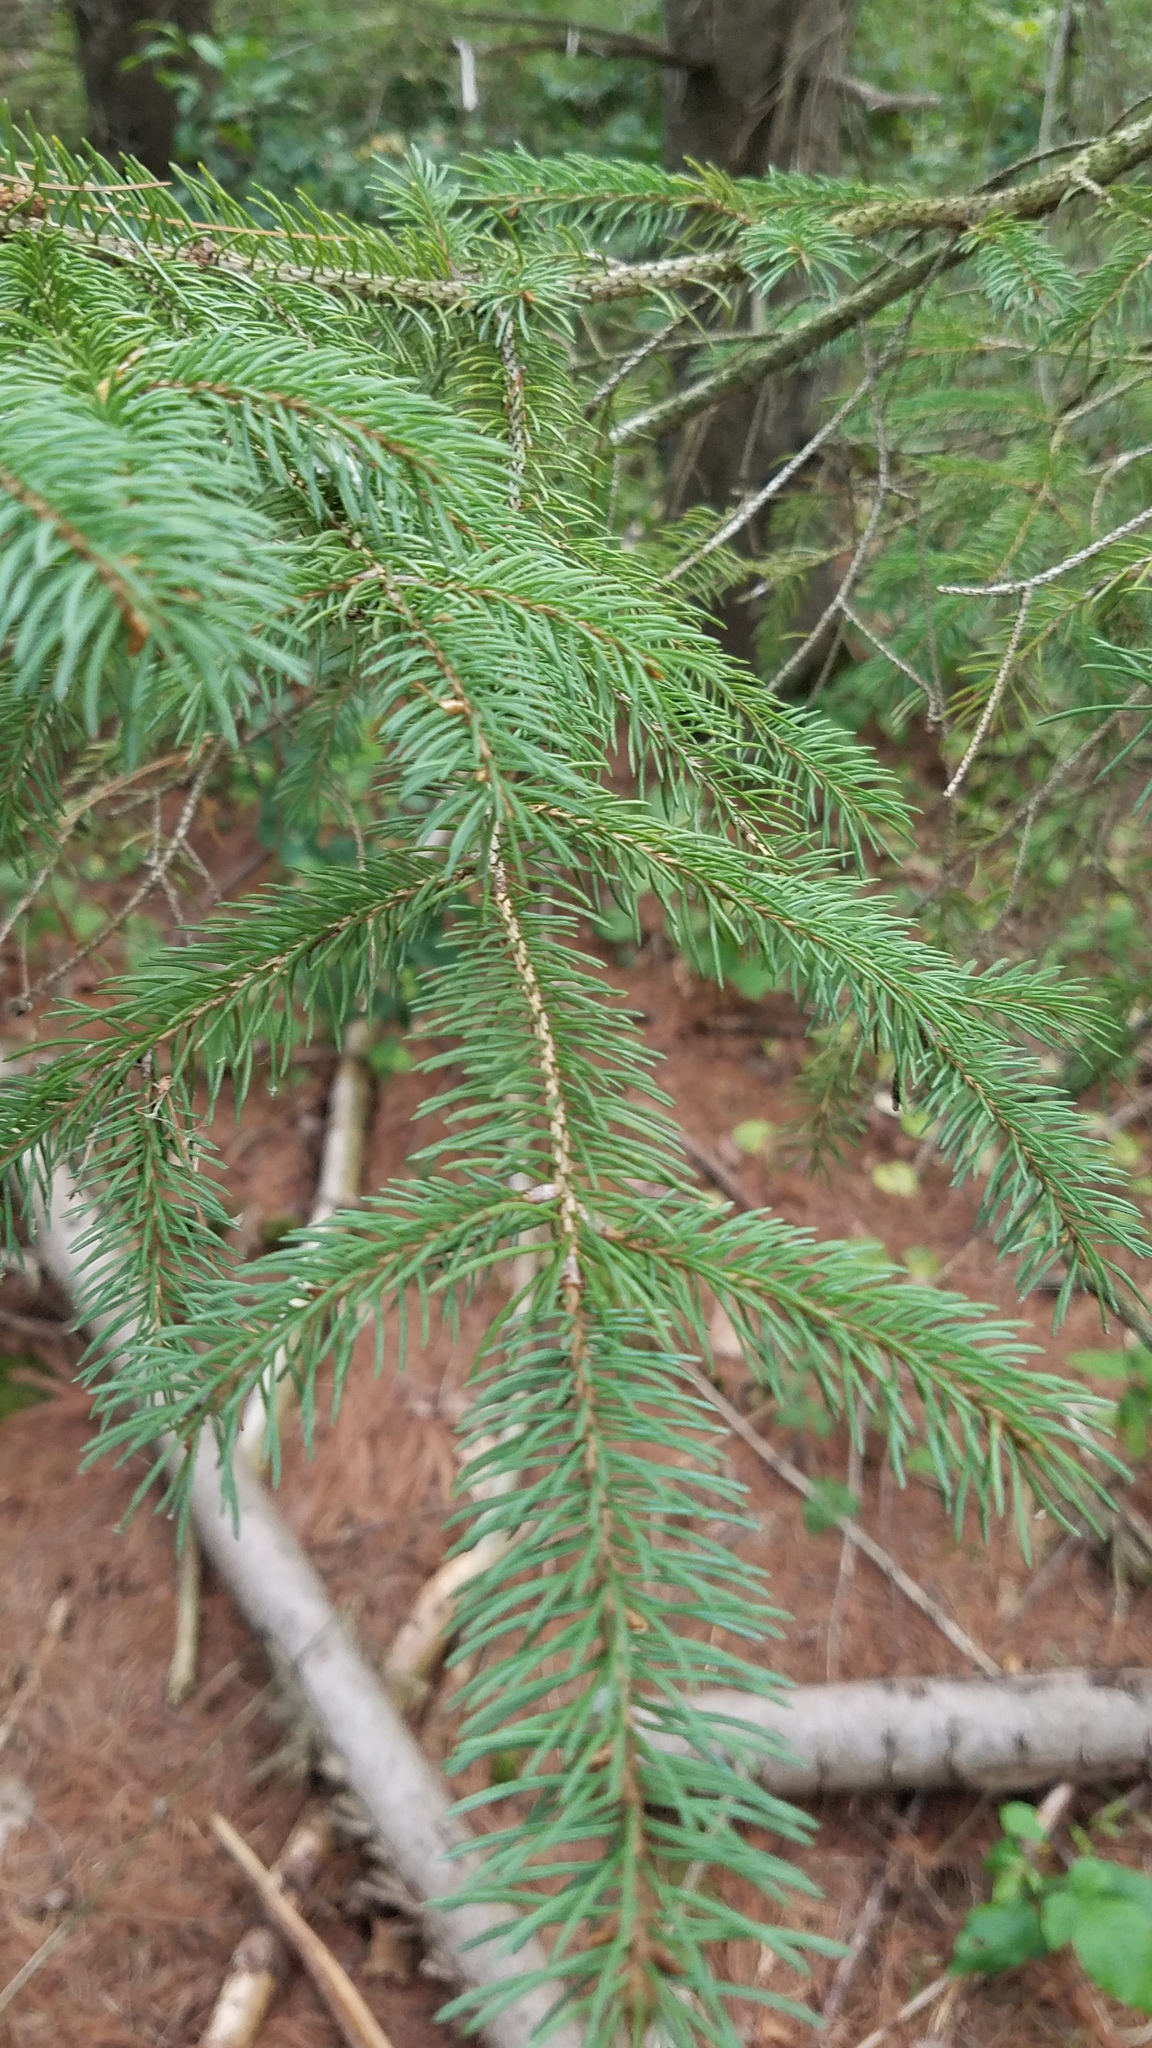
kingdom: Plantae
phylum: Tracheophyta
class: Pinopsida
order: Pinales
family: Pinaceae
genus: Picea
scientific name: Picea glauca
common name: White spruce
